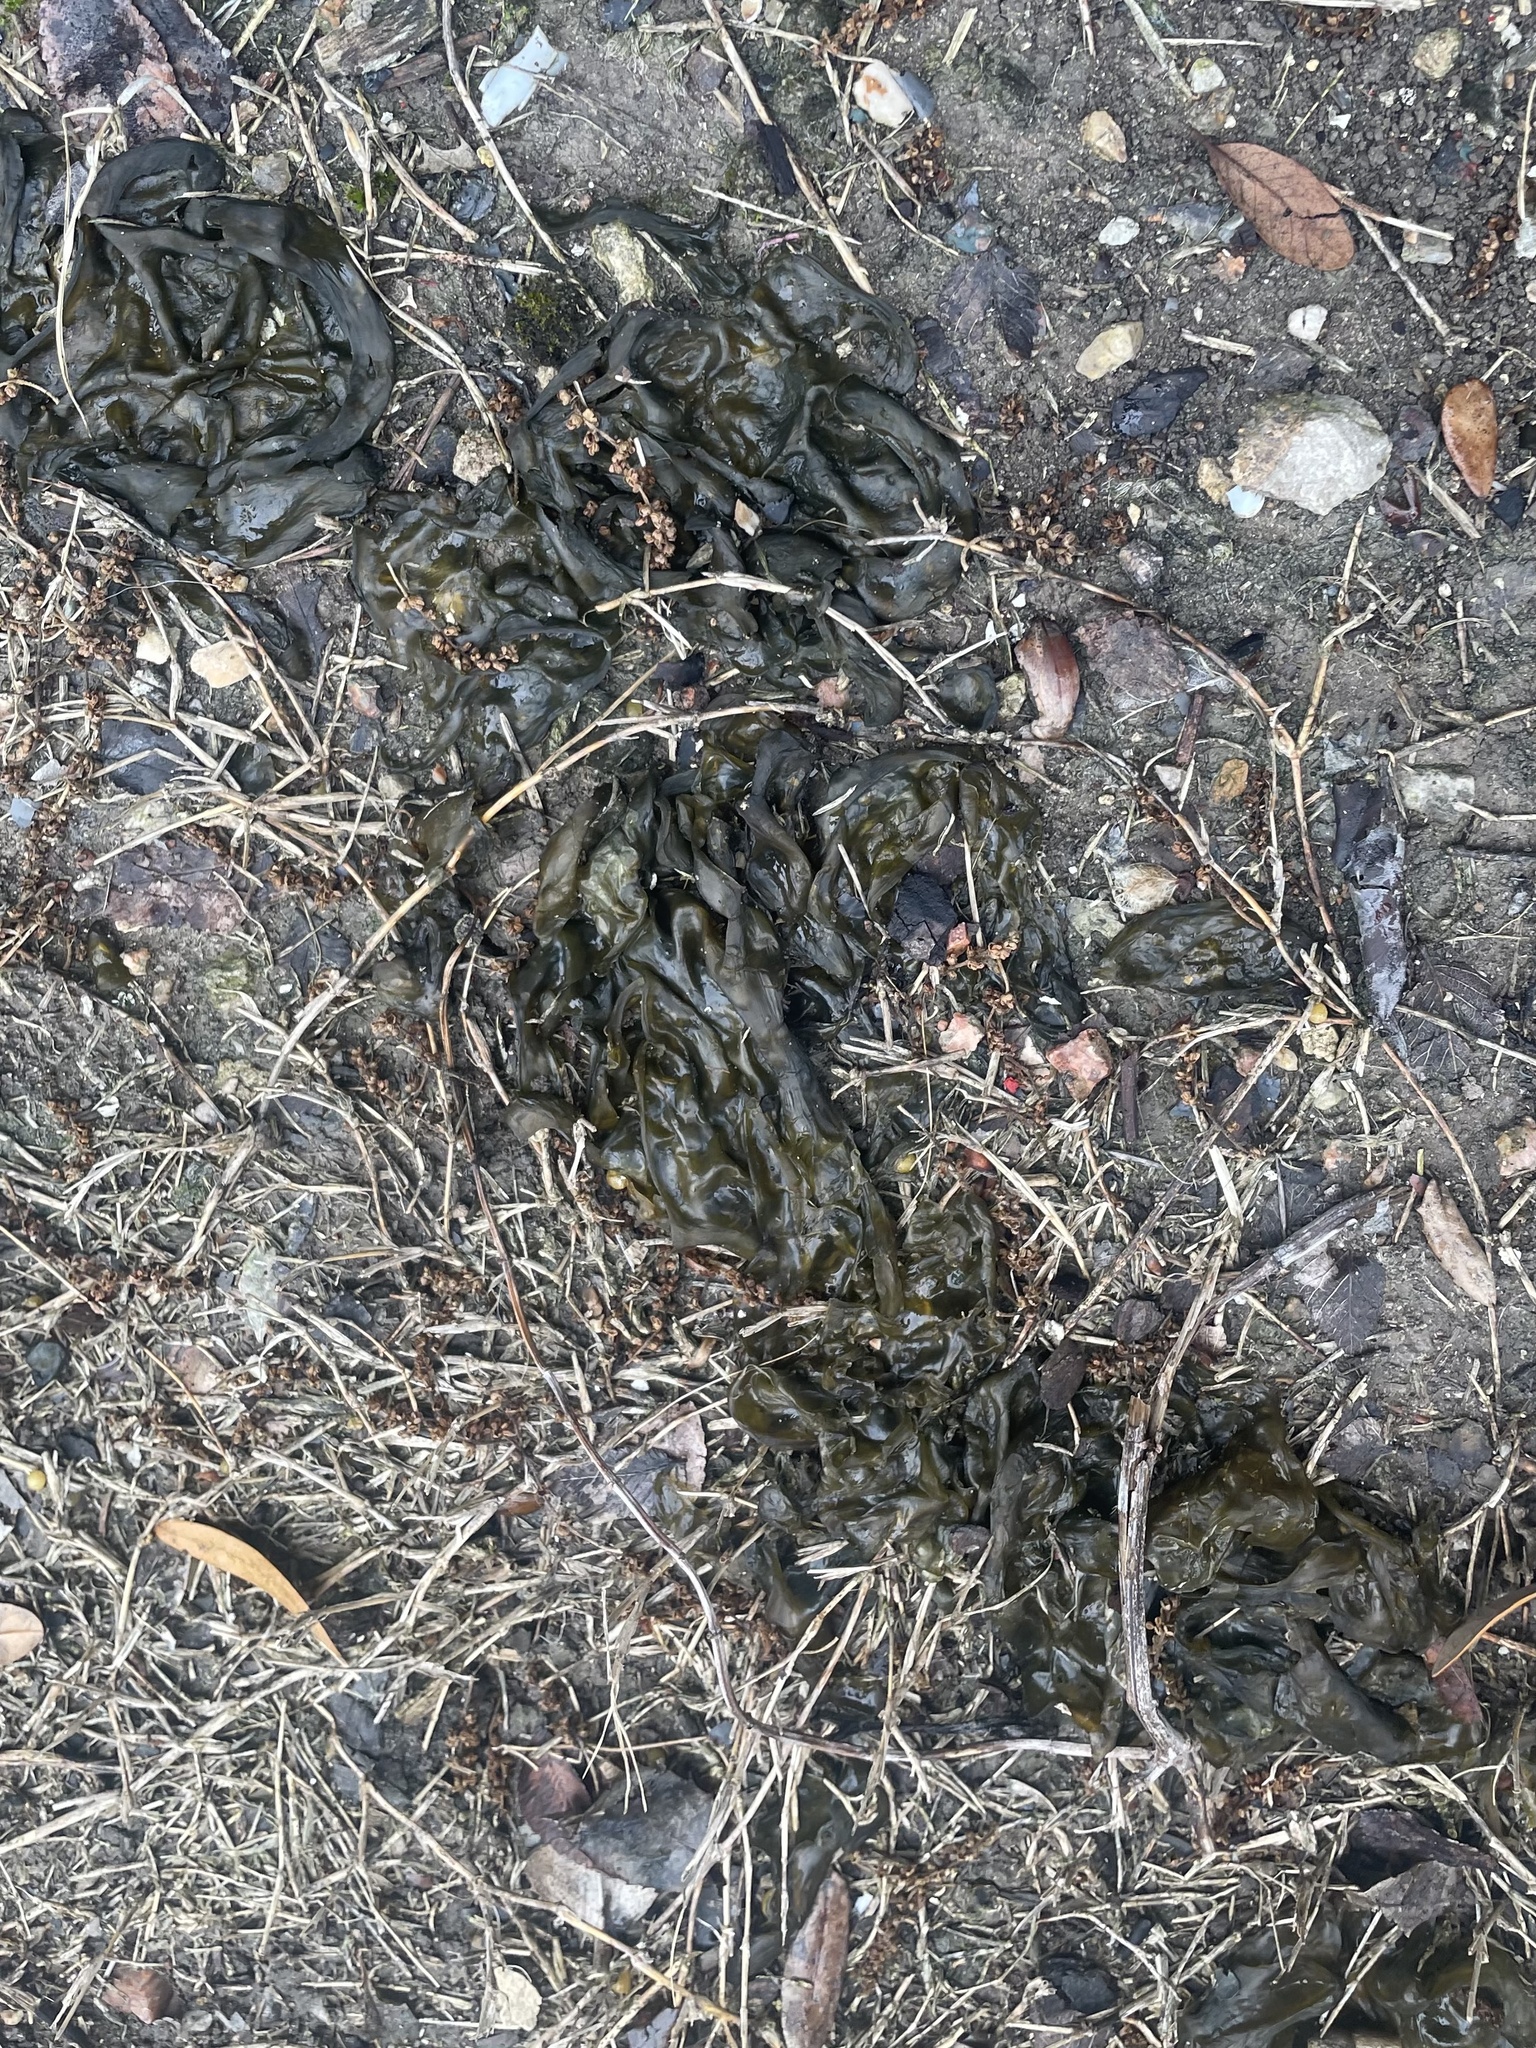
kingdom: Bacteria
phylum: Cyanobacteria
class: Cyanobacteriia
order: Cyanobacteriales
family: Nostocaceae
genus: Nostoc
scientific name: Nostoc commune
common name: Star jelly
